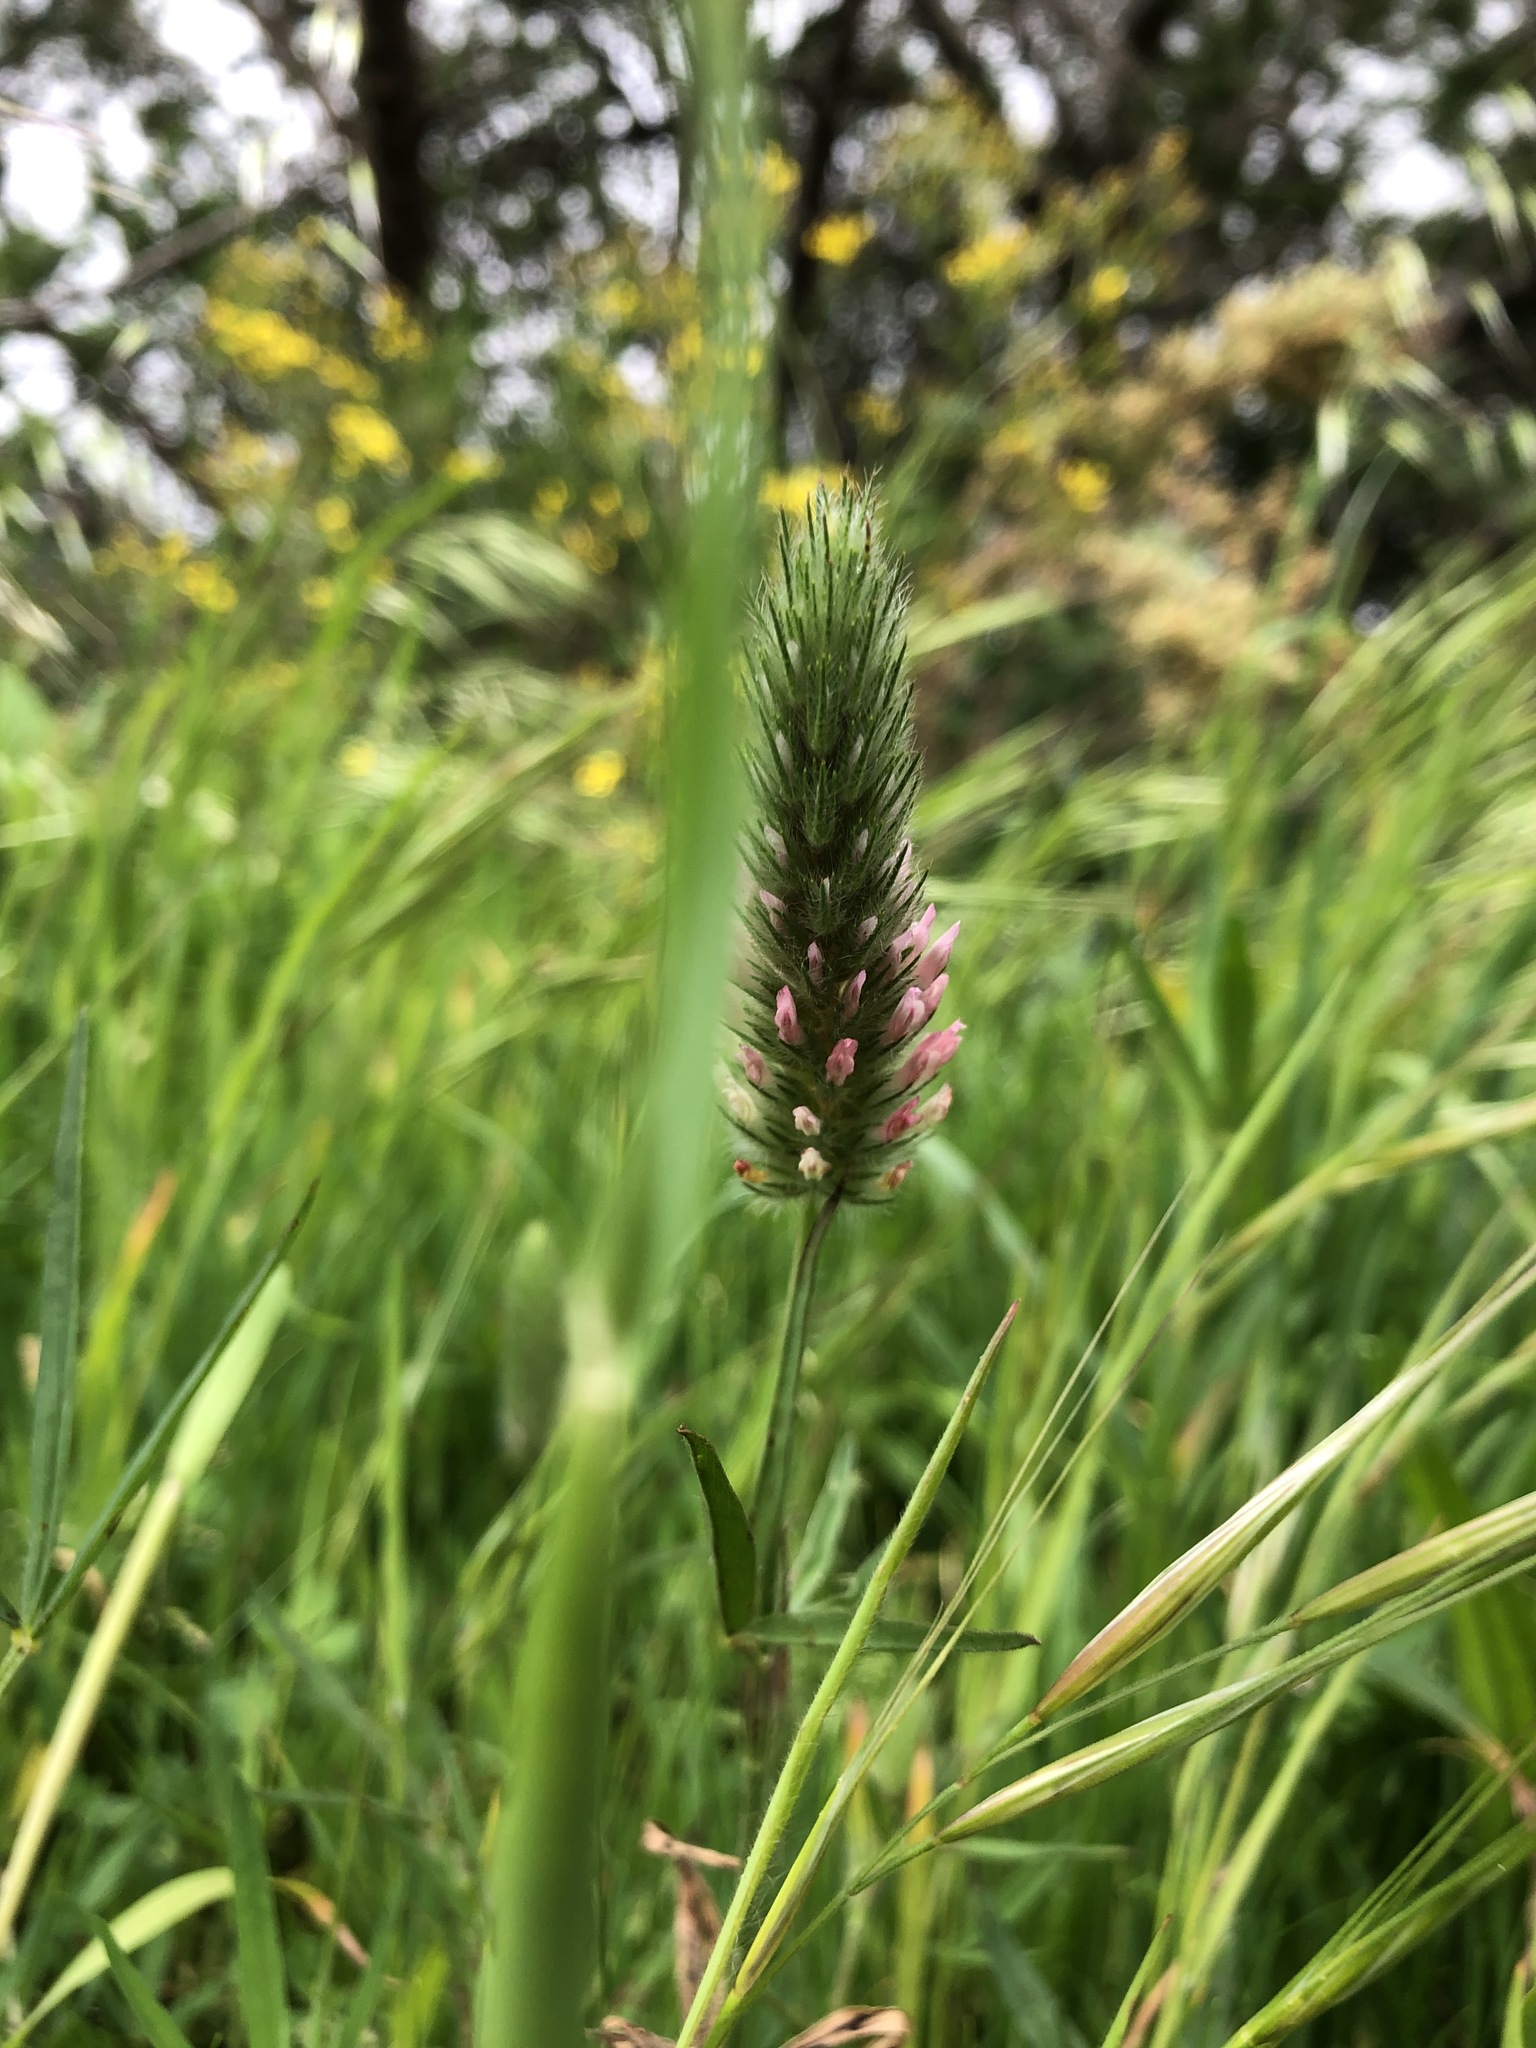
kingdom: Plantae
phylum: Tracheophyta
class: Magnoliopsida
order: Fabales
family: Fabaceae
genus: Trifolium
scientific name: Trifolium angustifolium
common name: Narrow clover
